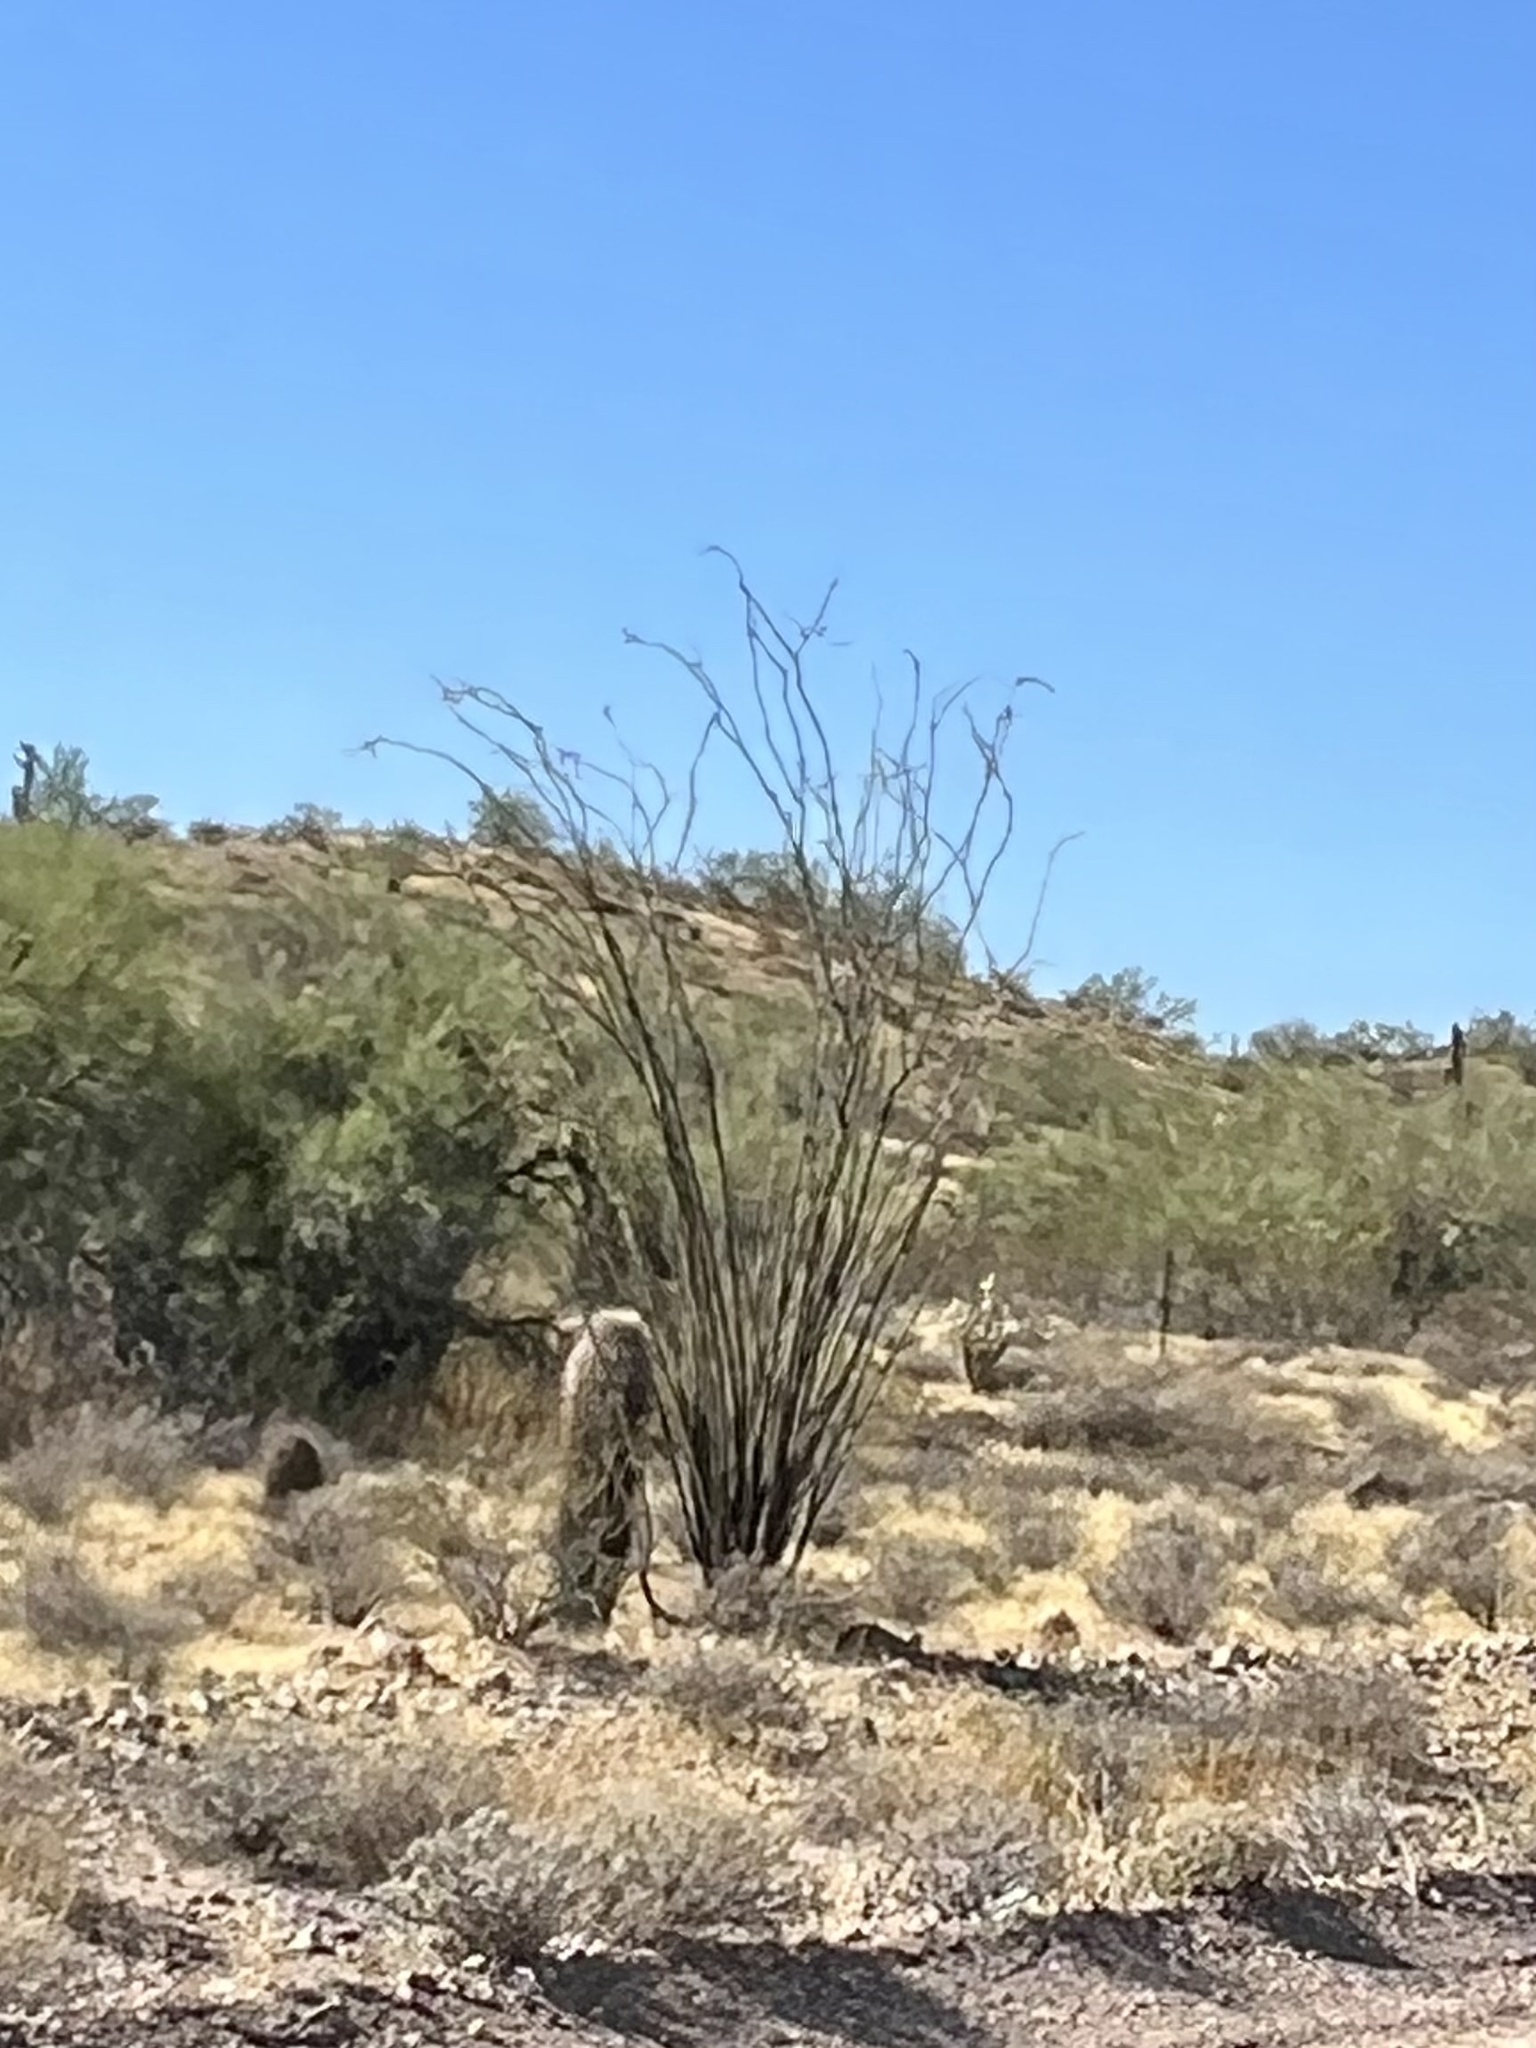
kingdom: Plantae
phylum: Tracheophyta
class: Magnoliopsida
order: Ericales
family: Fouquieriaceae
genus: Fouquieria
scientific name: Fouquieria splendens
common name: Vine-cactus
